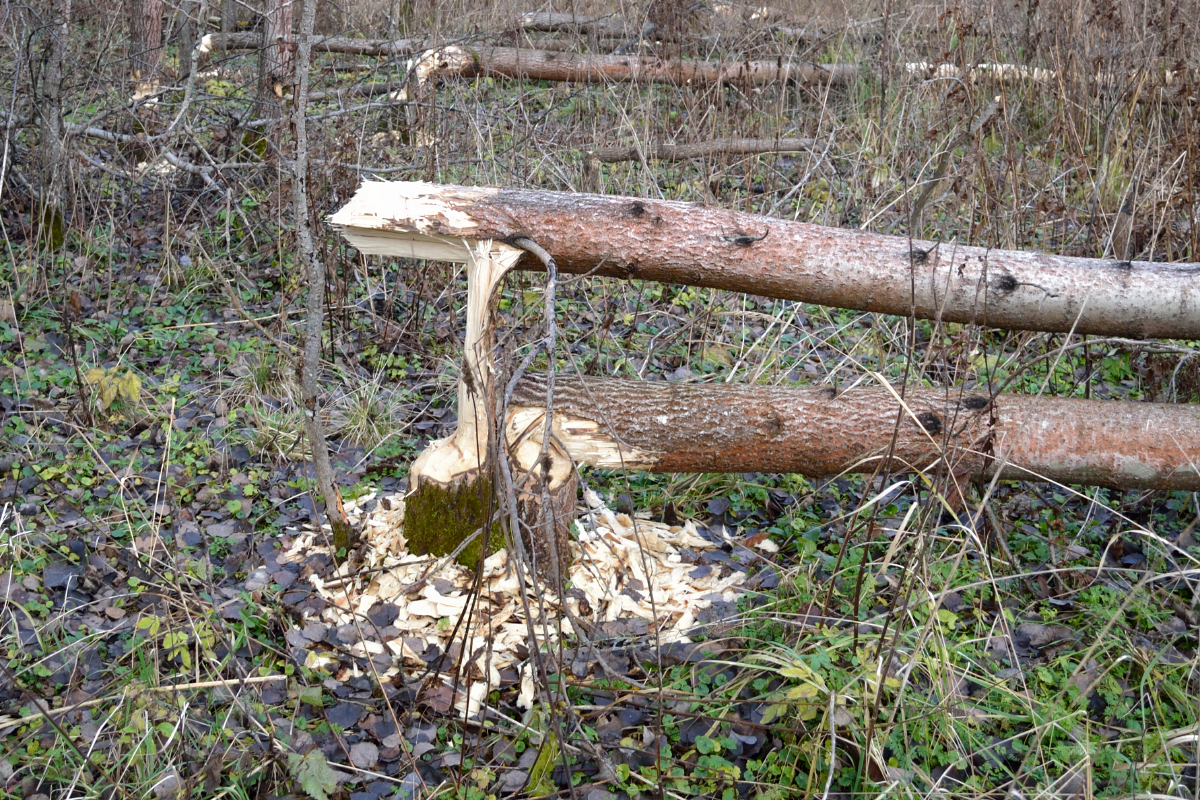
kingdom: Animalia
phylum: Chordata
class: Mammalia
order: Rodentia
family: Castoridae
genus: Castor
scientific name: Castor fiber
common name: Eurasian beaver
